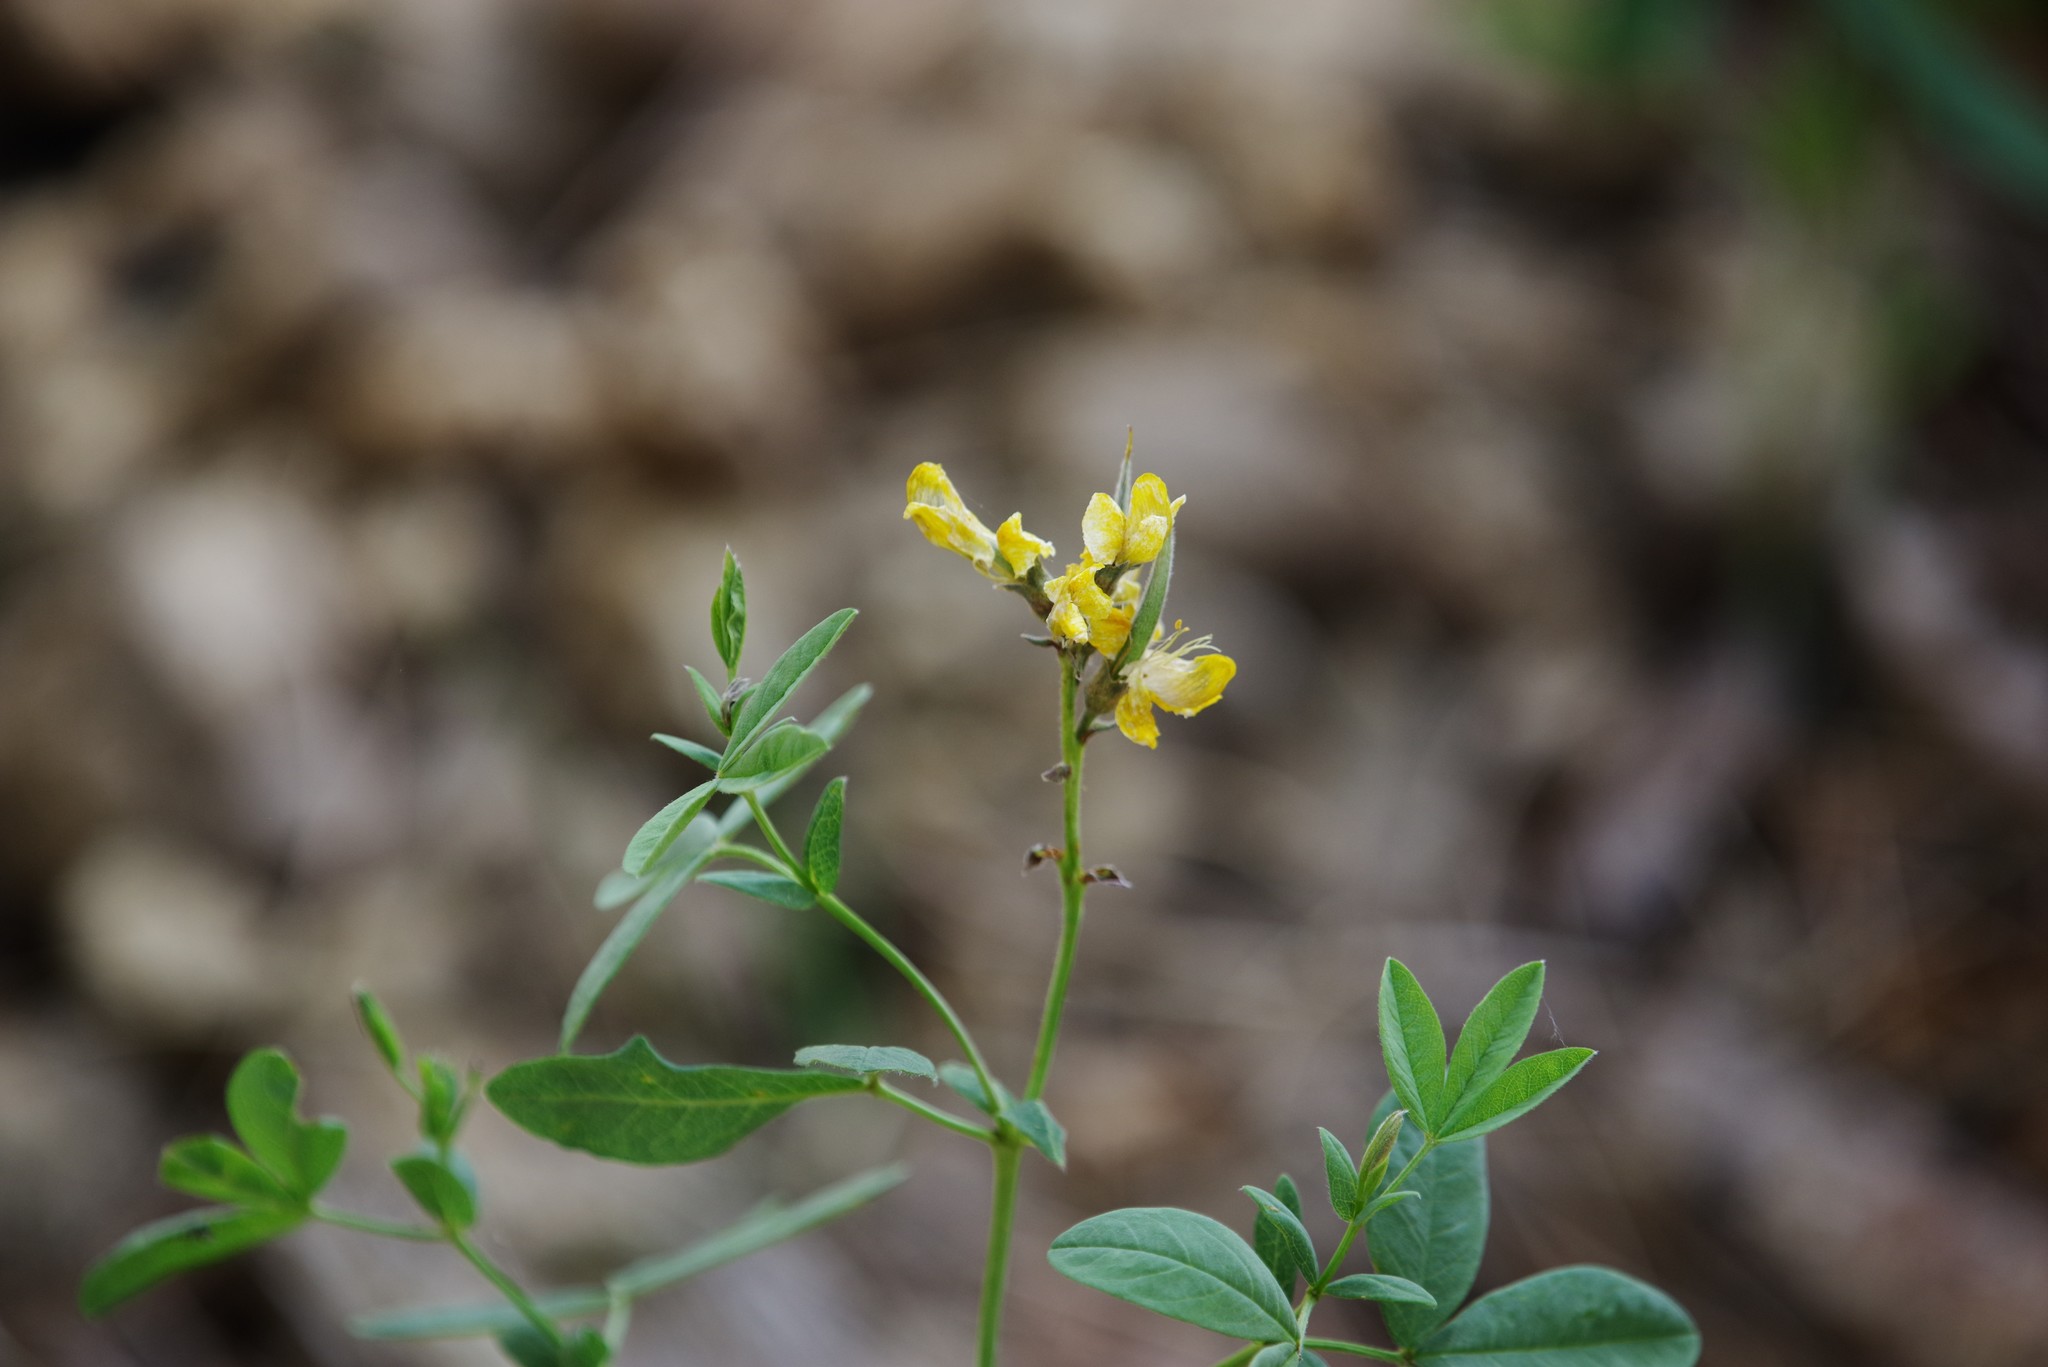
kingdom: Plantae
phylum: Tracheophyta
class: Magnoliopsida
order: Fabales
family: Fabaceae
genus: Thermopsis
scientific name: Thermopsis montana
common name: False lupin
